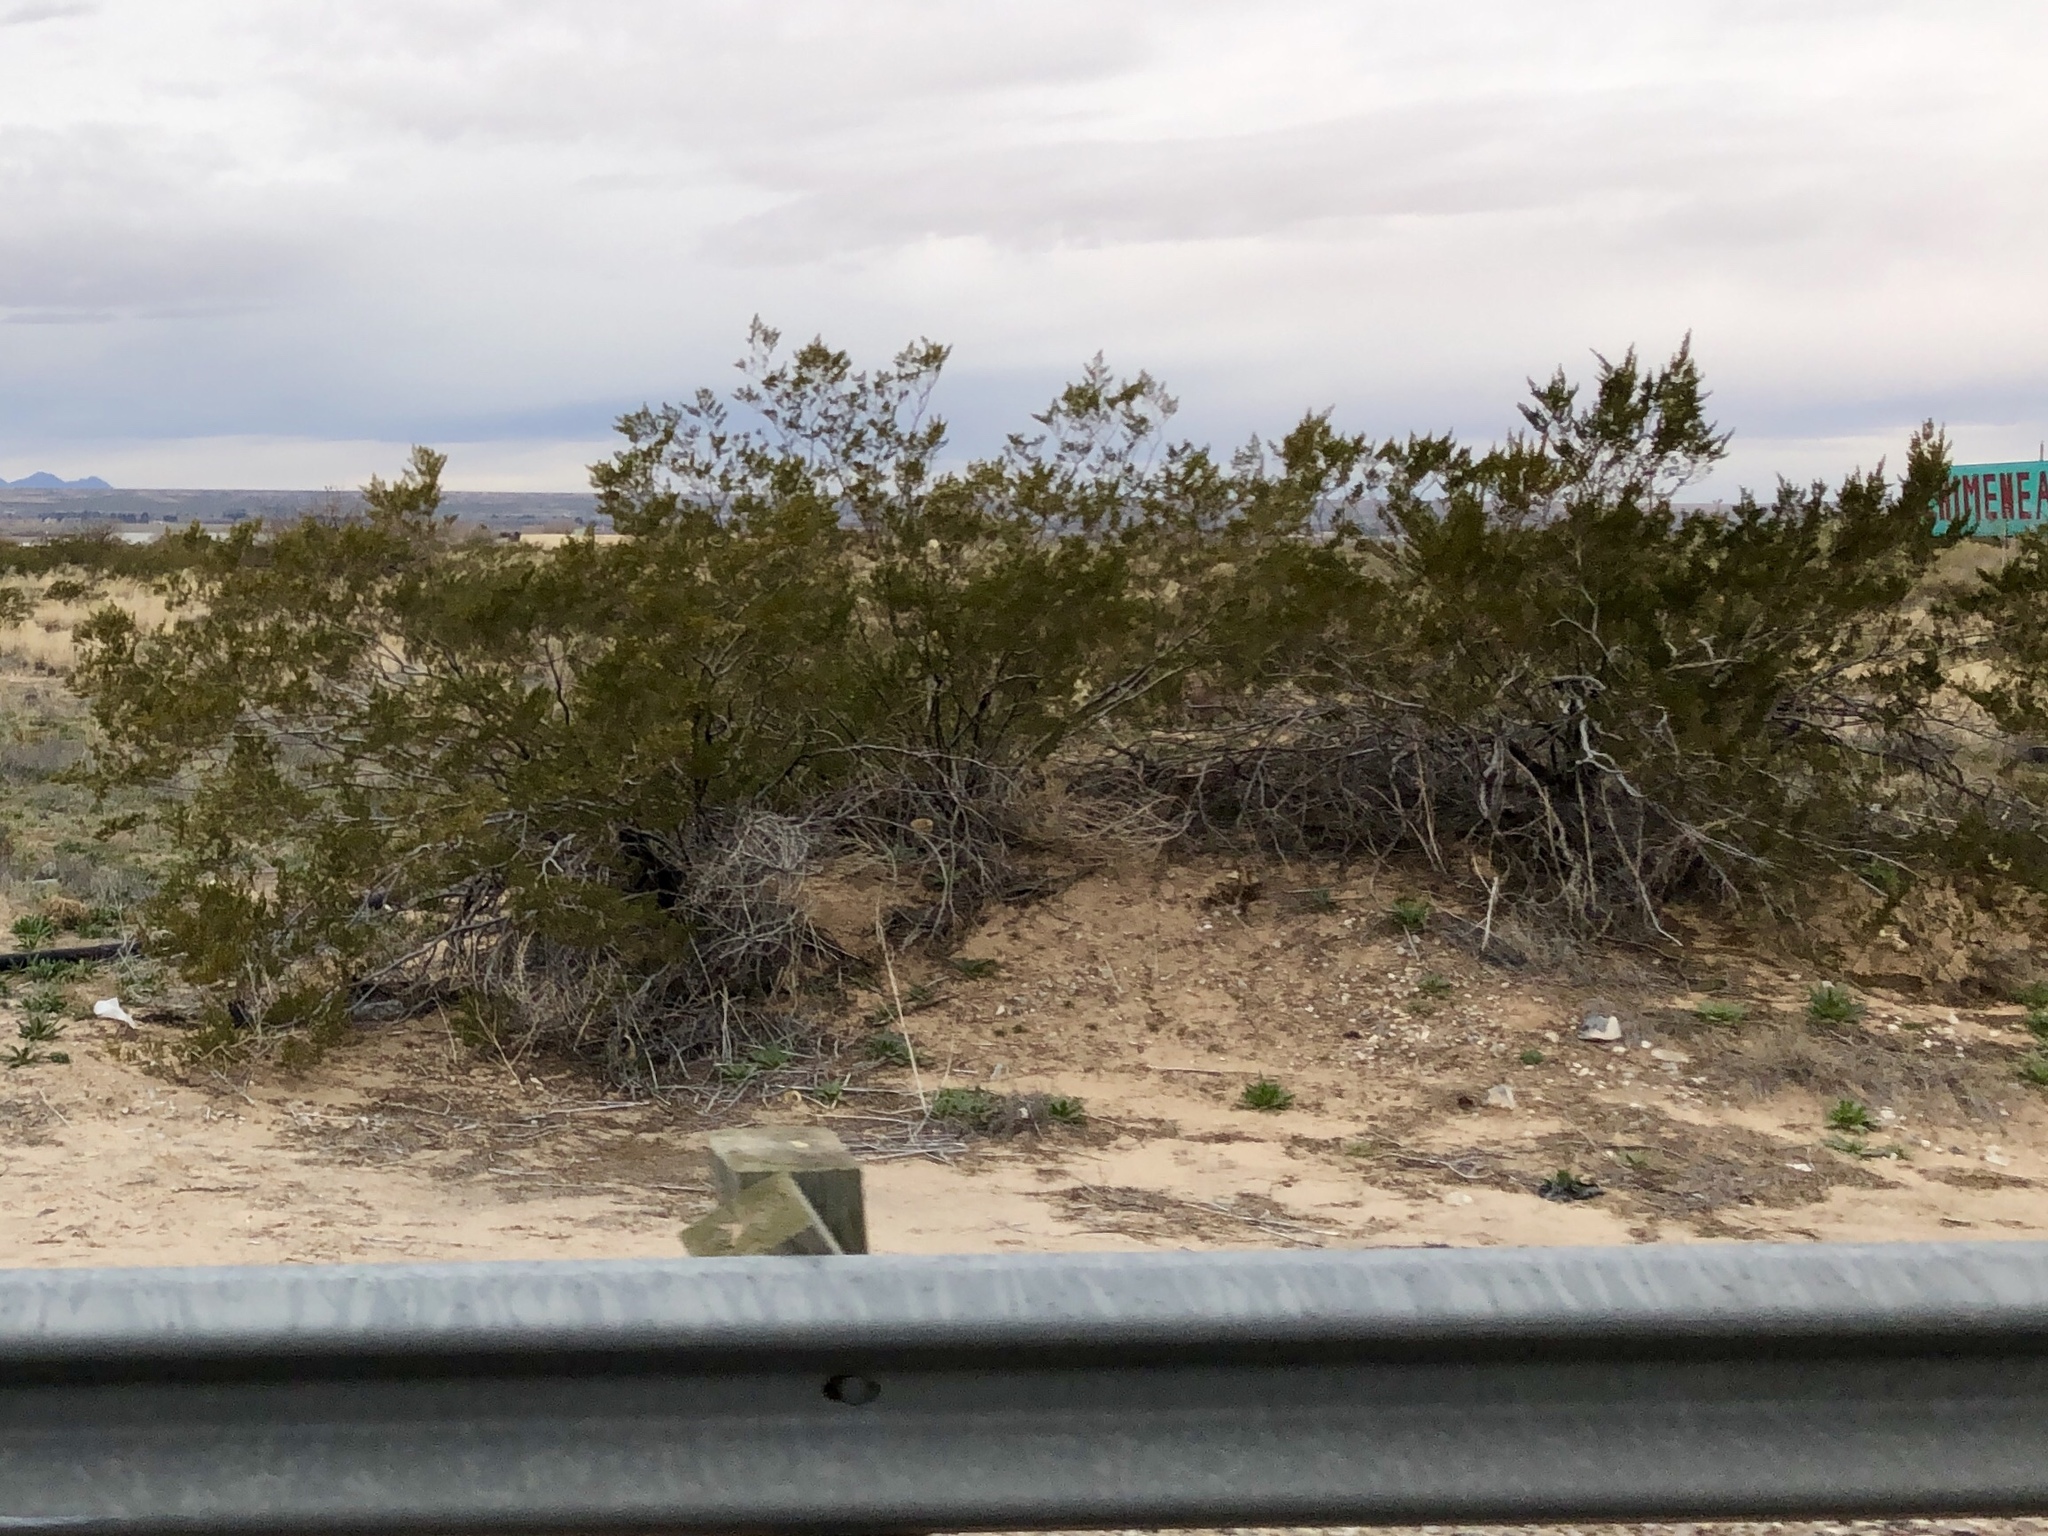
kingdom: Plantae
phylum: Tracheophyta
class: Magnoliopsida
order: Zygophyllales
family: Zygophyllaceae
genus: Larrea
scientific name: Larrea tridentata
